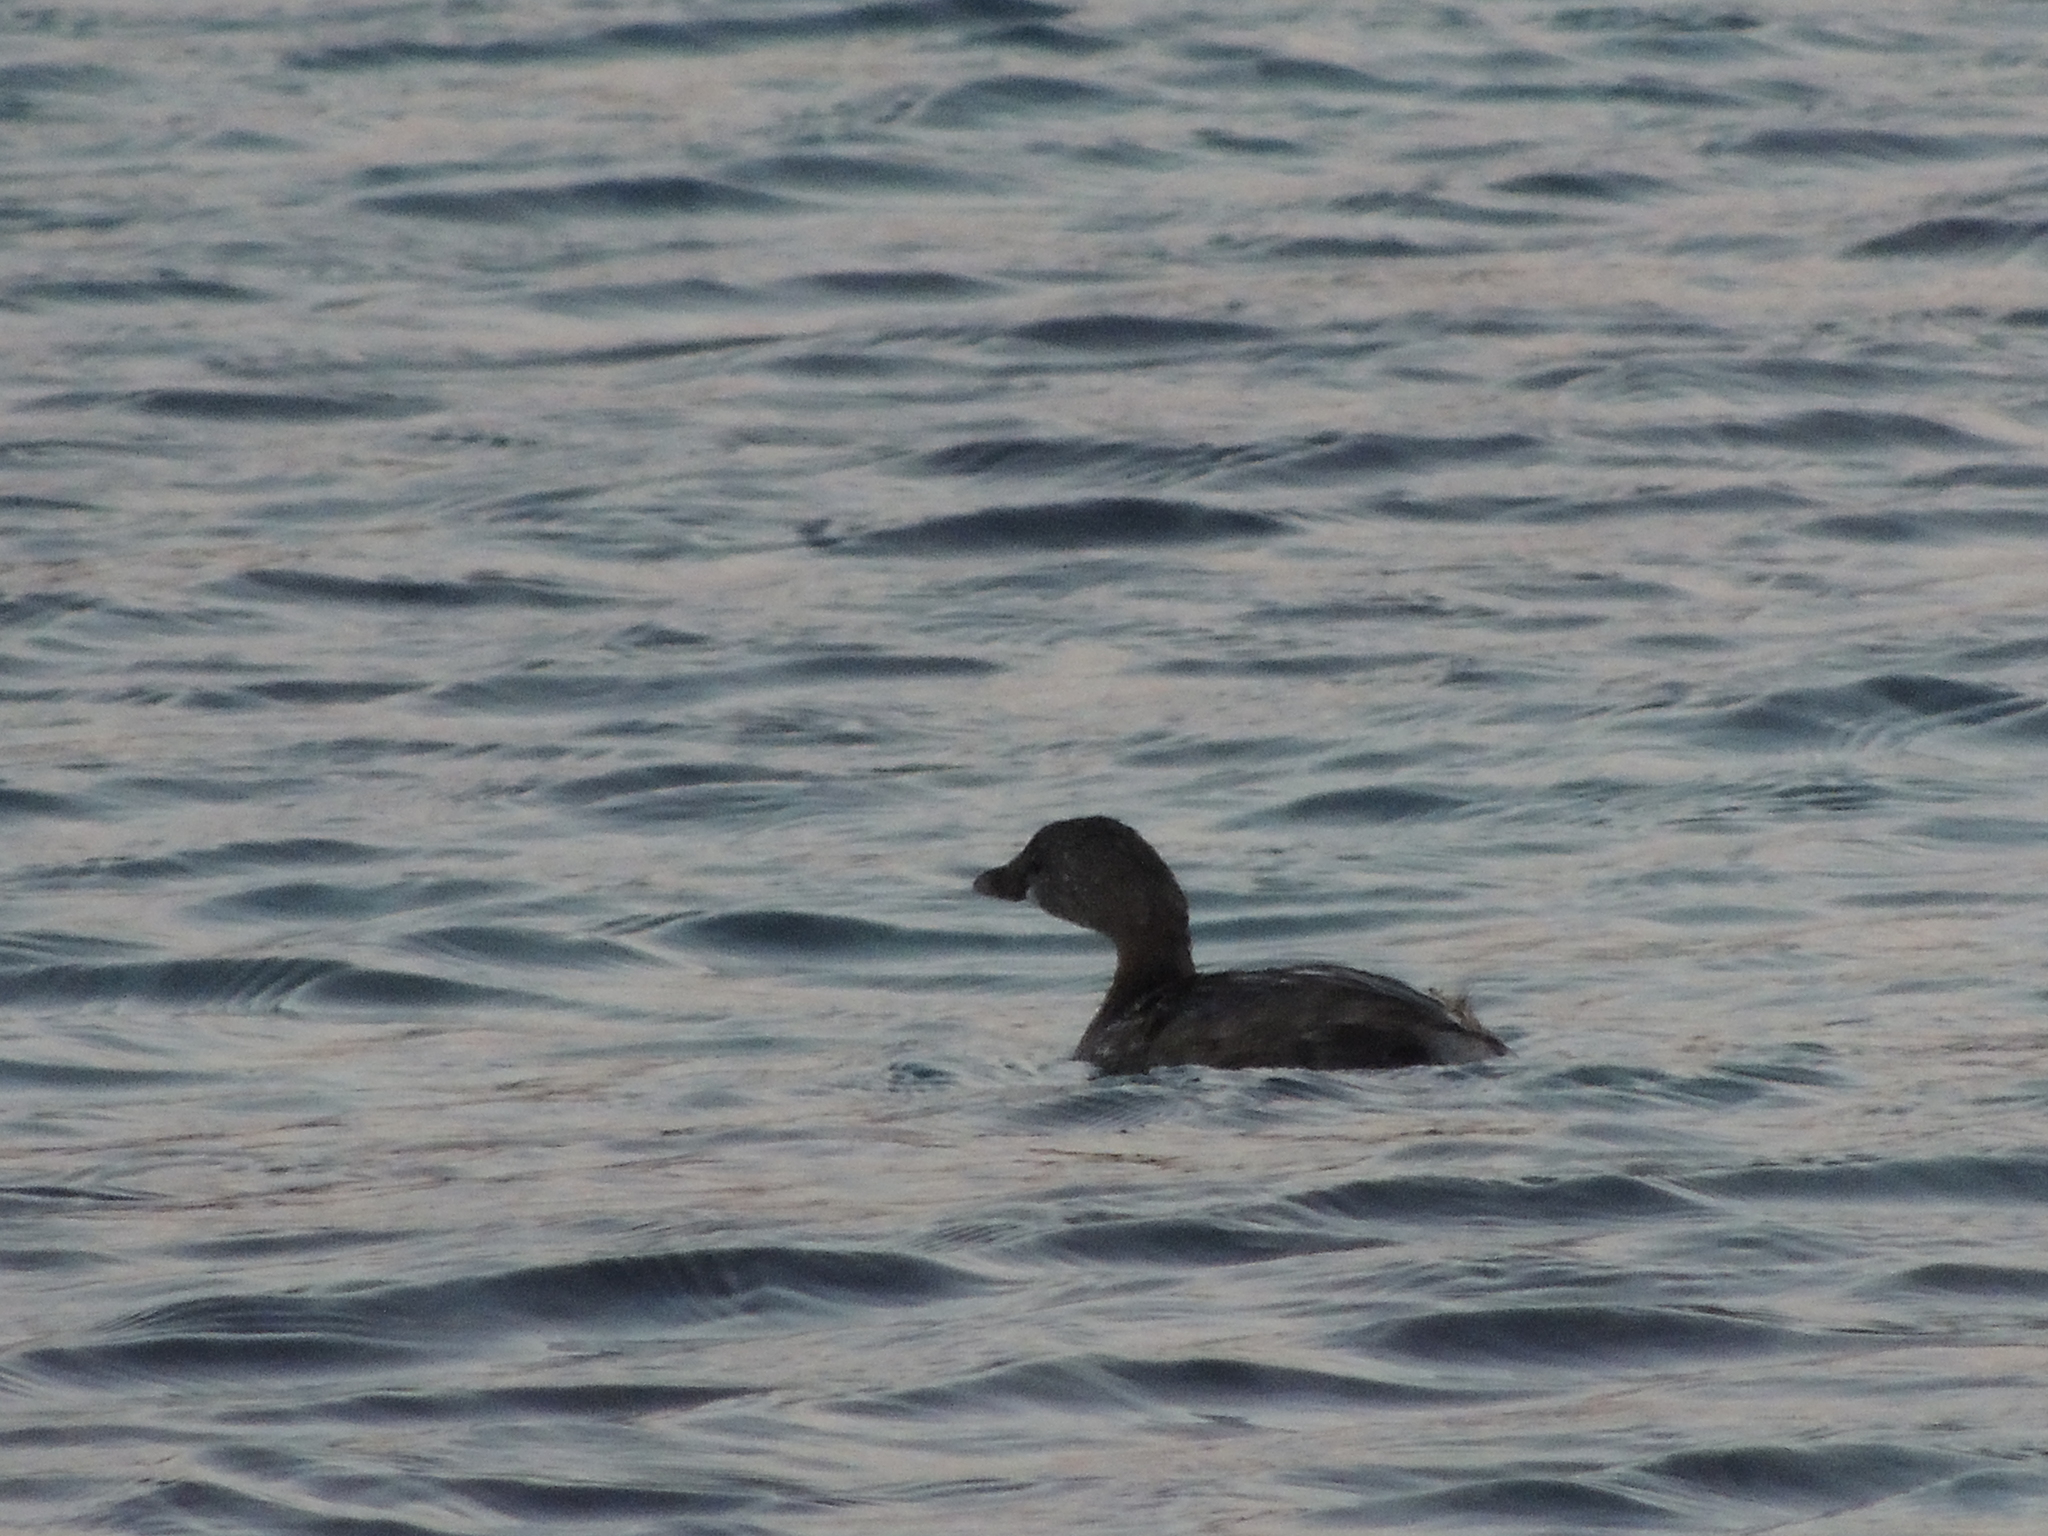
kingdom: Animalia
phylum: Chordata
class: Aves
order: Podicipediformes
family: Podicipedidae
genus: Podilymbus
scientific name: Podilymbus podiceps
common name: Pied-billed grebe
